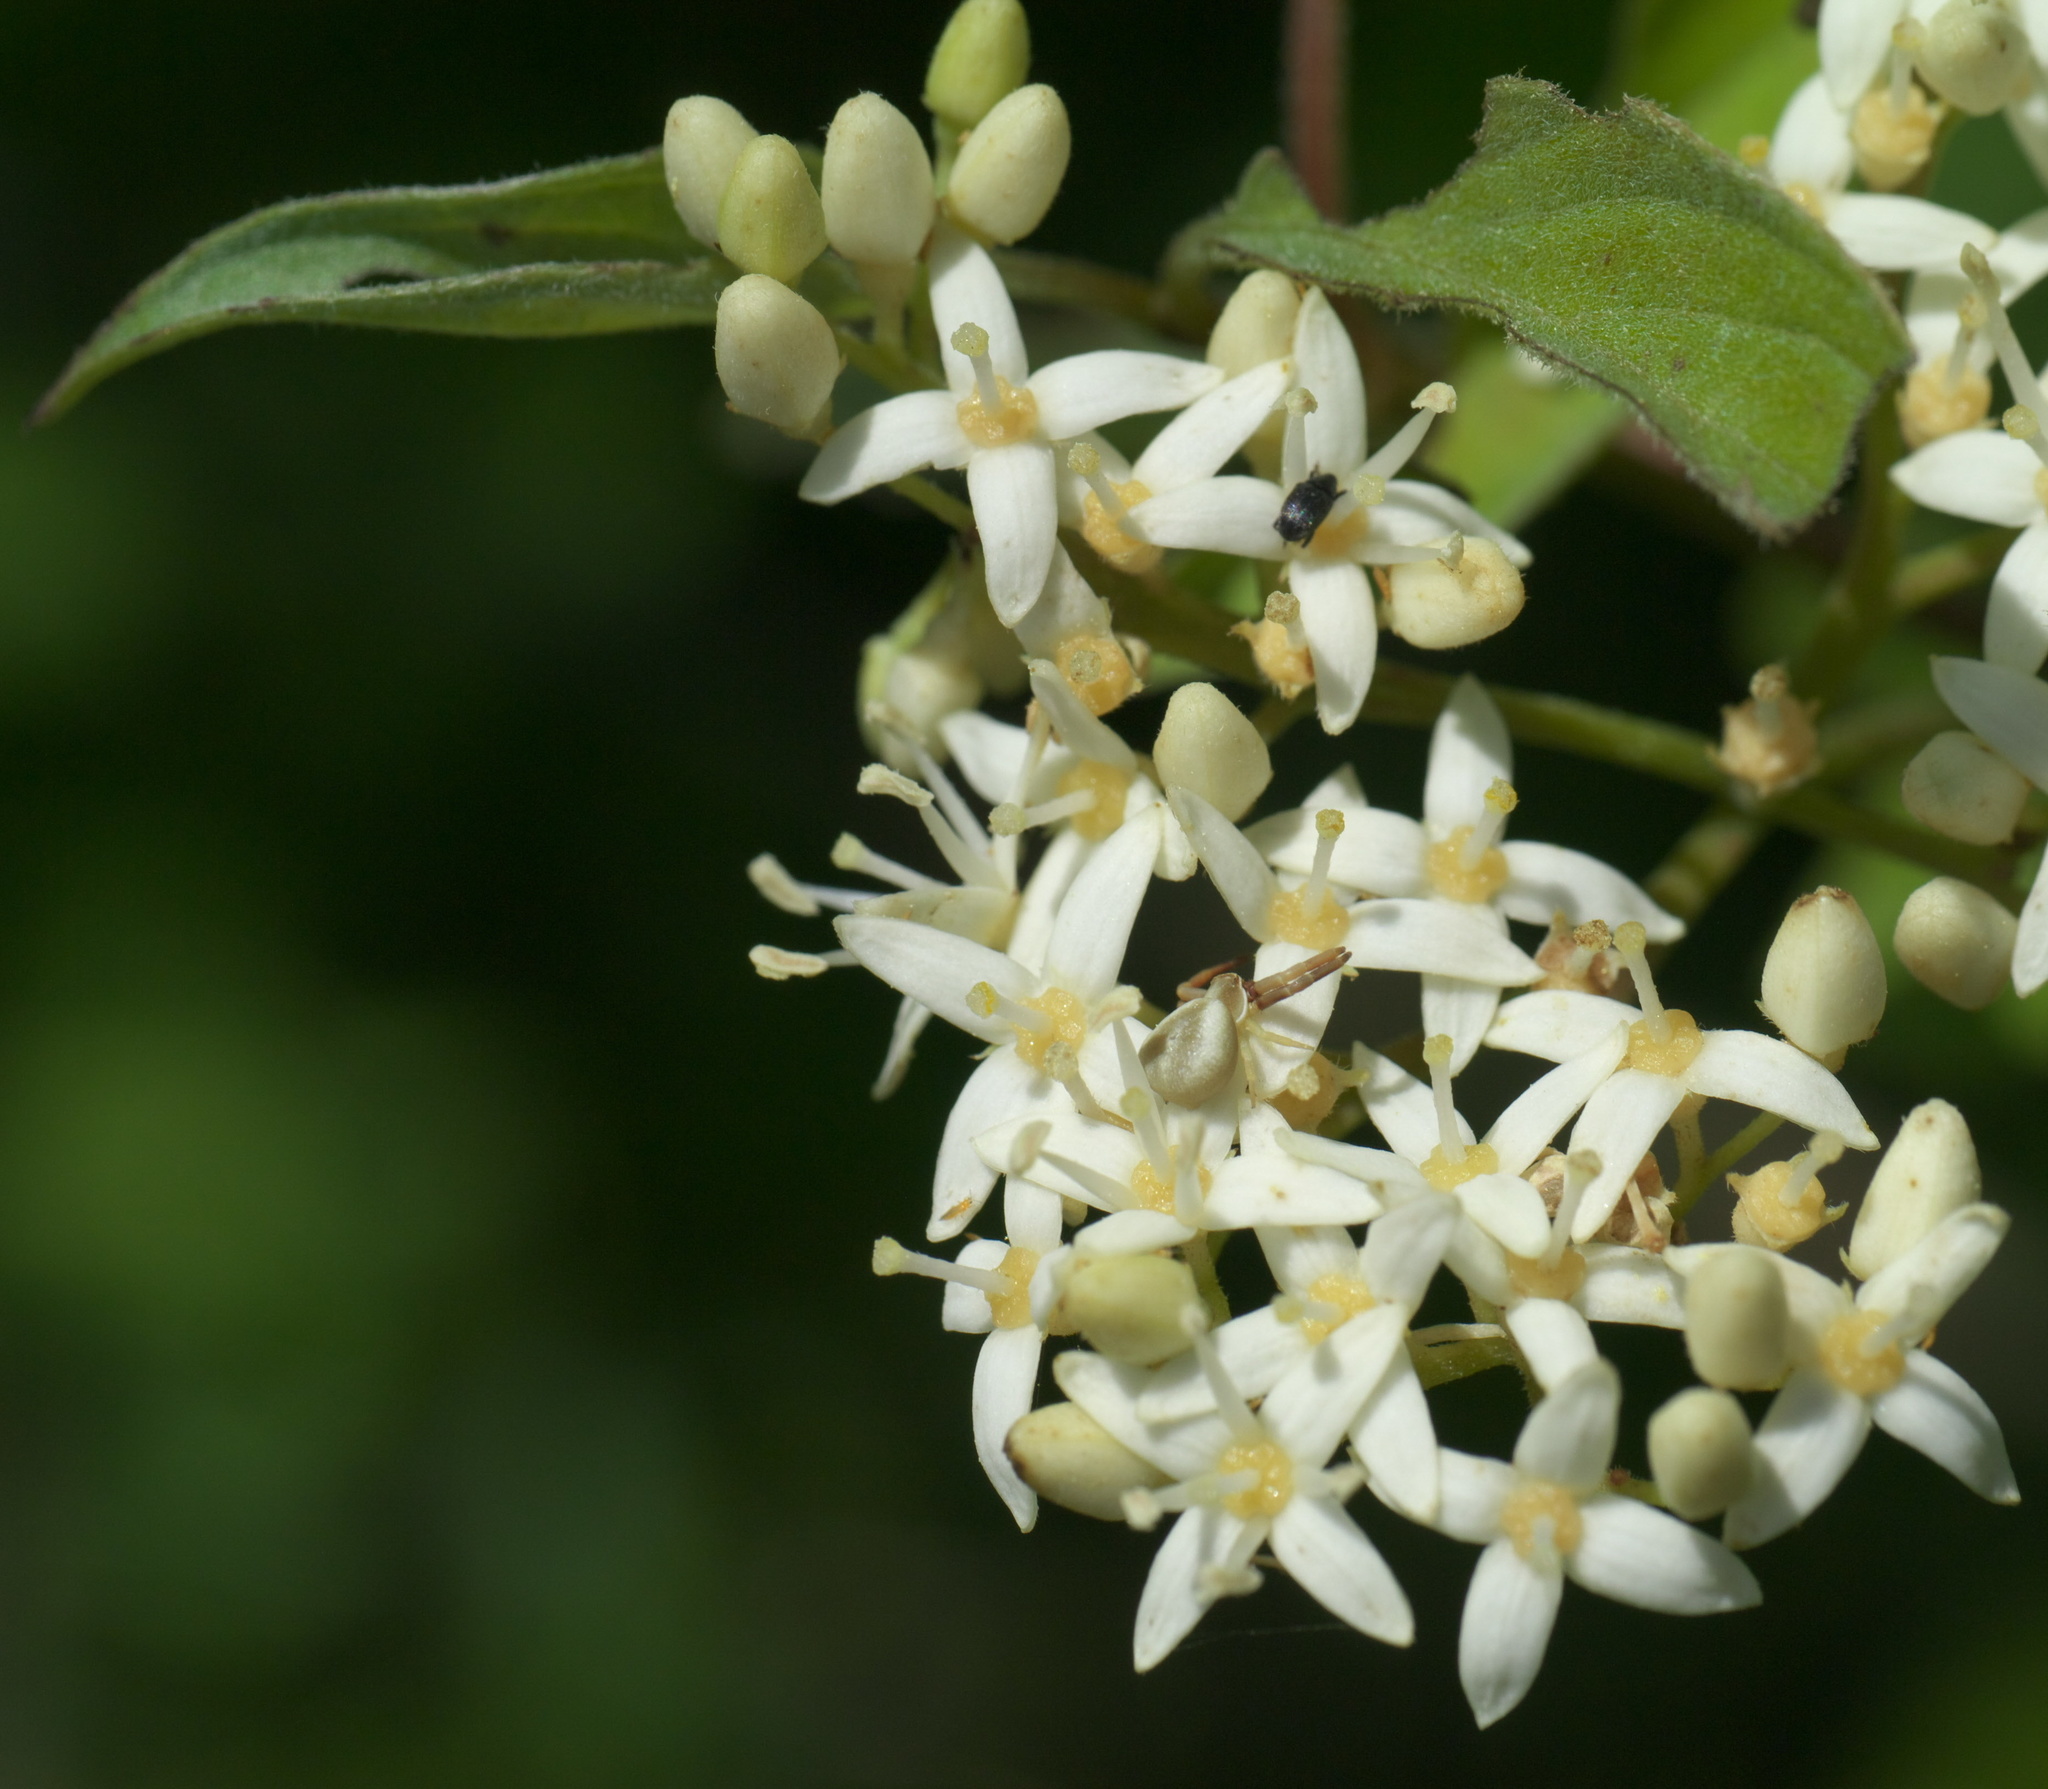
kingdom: Animalia
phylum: Arthropoda
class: Arachnida
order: Araneae
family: Thomisidae
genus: Misumenoides
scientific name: Misumenoides formosipes
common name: White-banded crab spider
